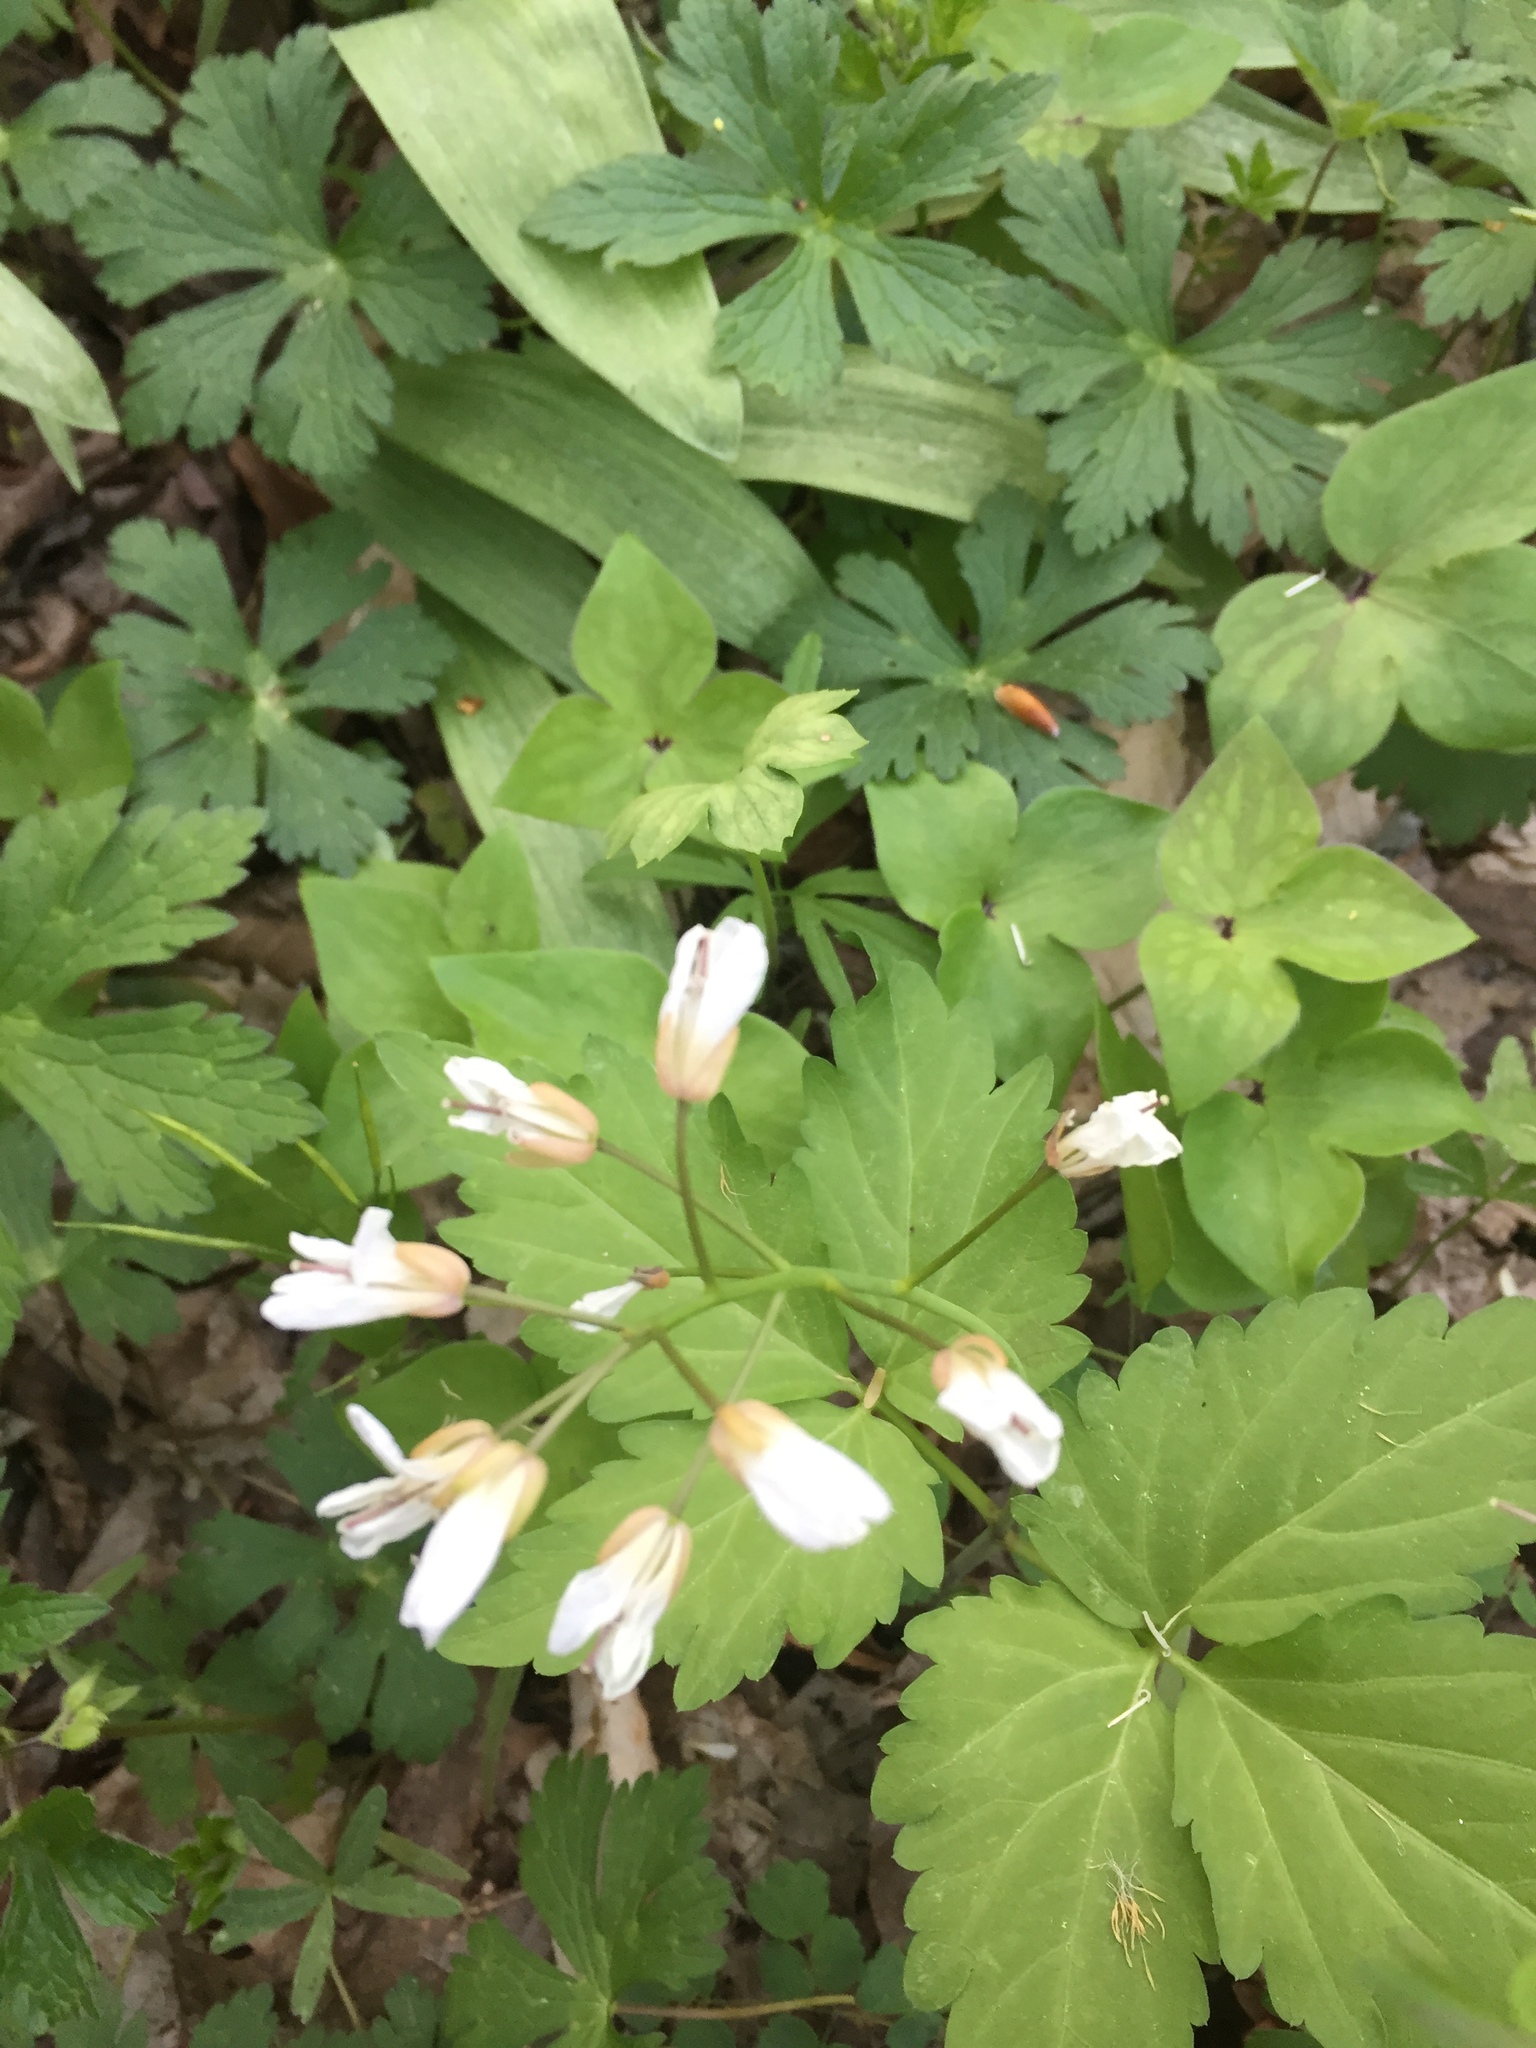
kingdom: Plantae
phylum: Tracheophyta
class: Magnoliopsida
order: Brassicales
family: Brassicaceae
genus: Cardamine
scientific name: Cardamine diphylla
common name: Broad-leaved toothwort
